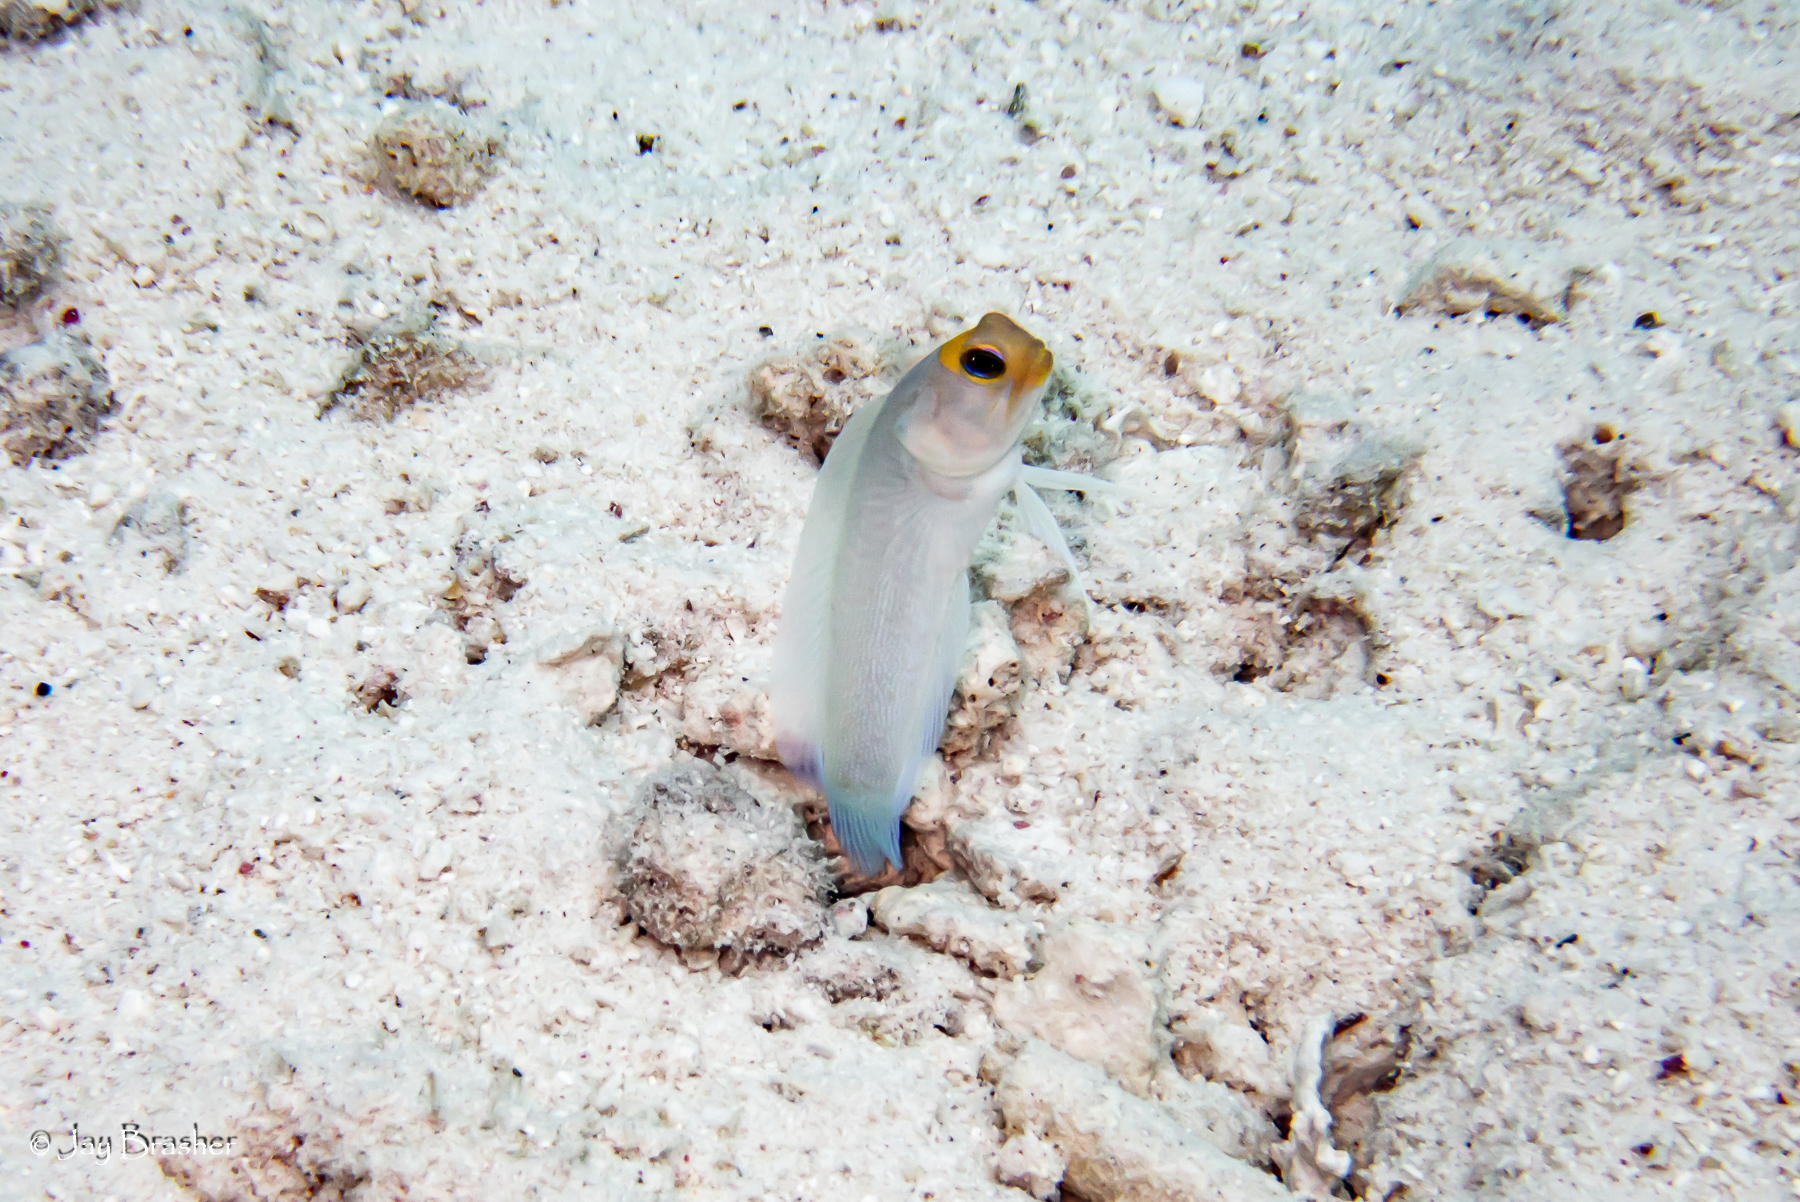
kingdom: Animalia
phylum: Chordata
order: Perciformes
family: Opistognathidae
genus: Opistognathus
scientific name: Opistognathus aurifrons
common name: Yellowhead jawfish
